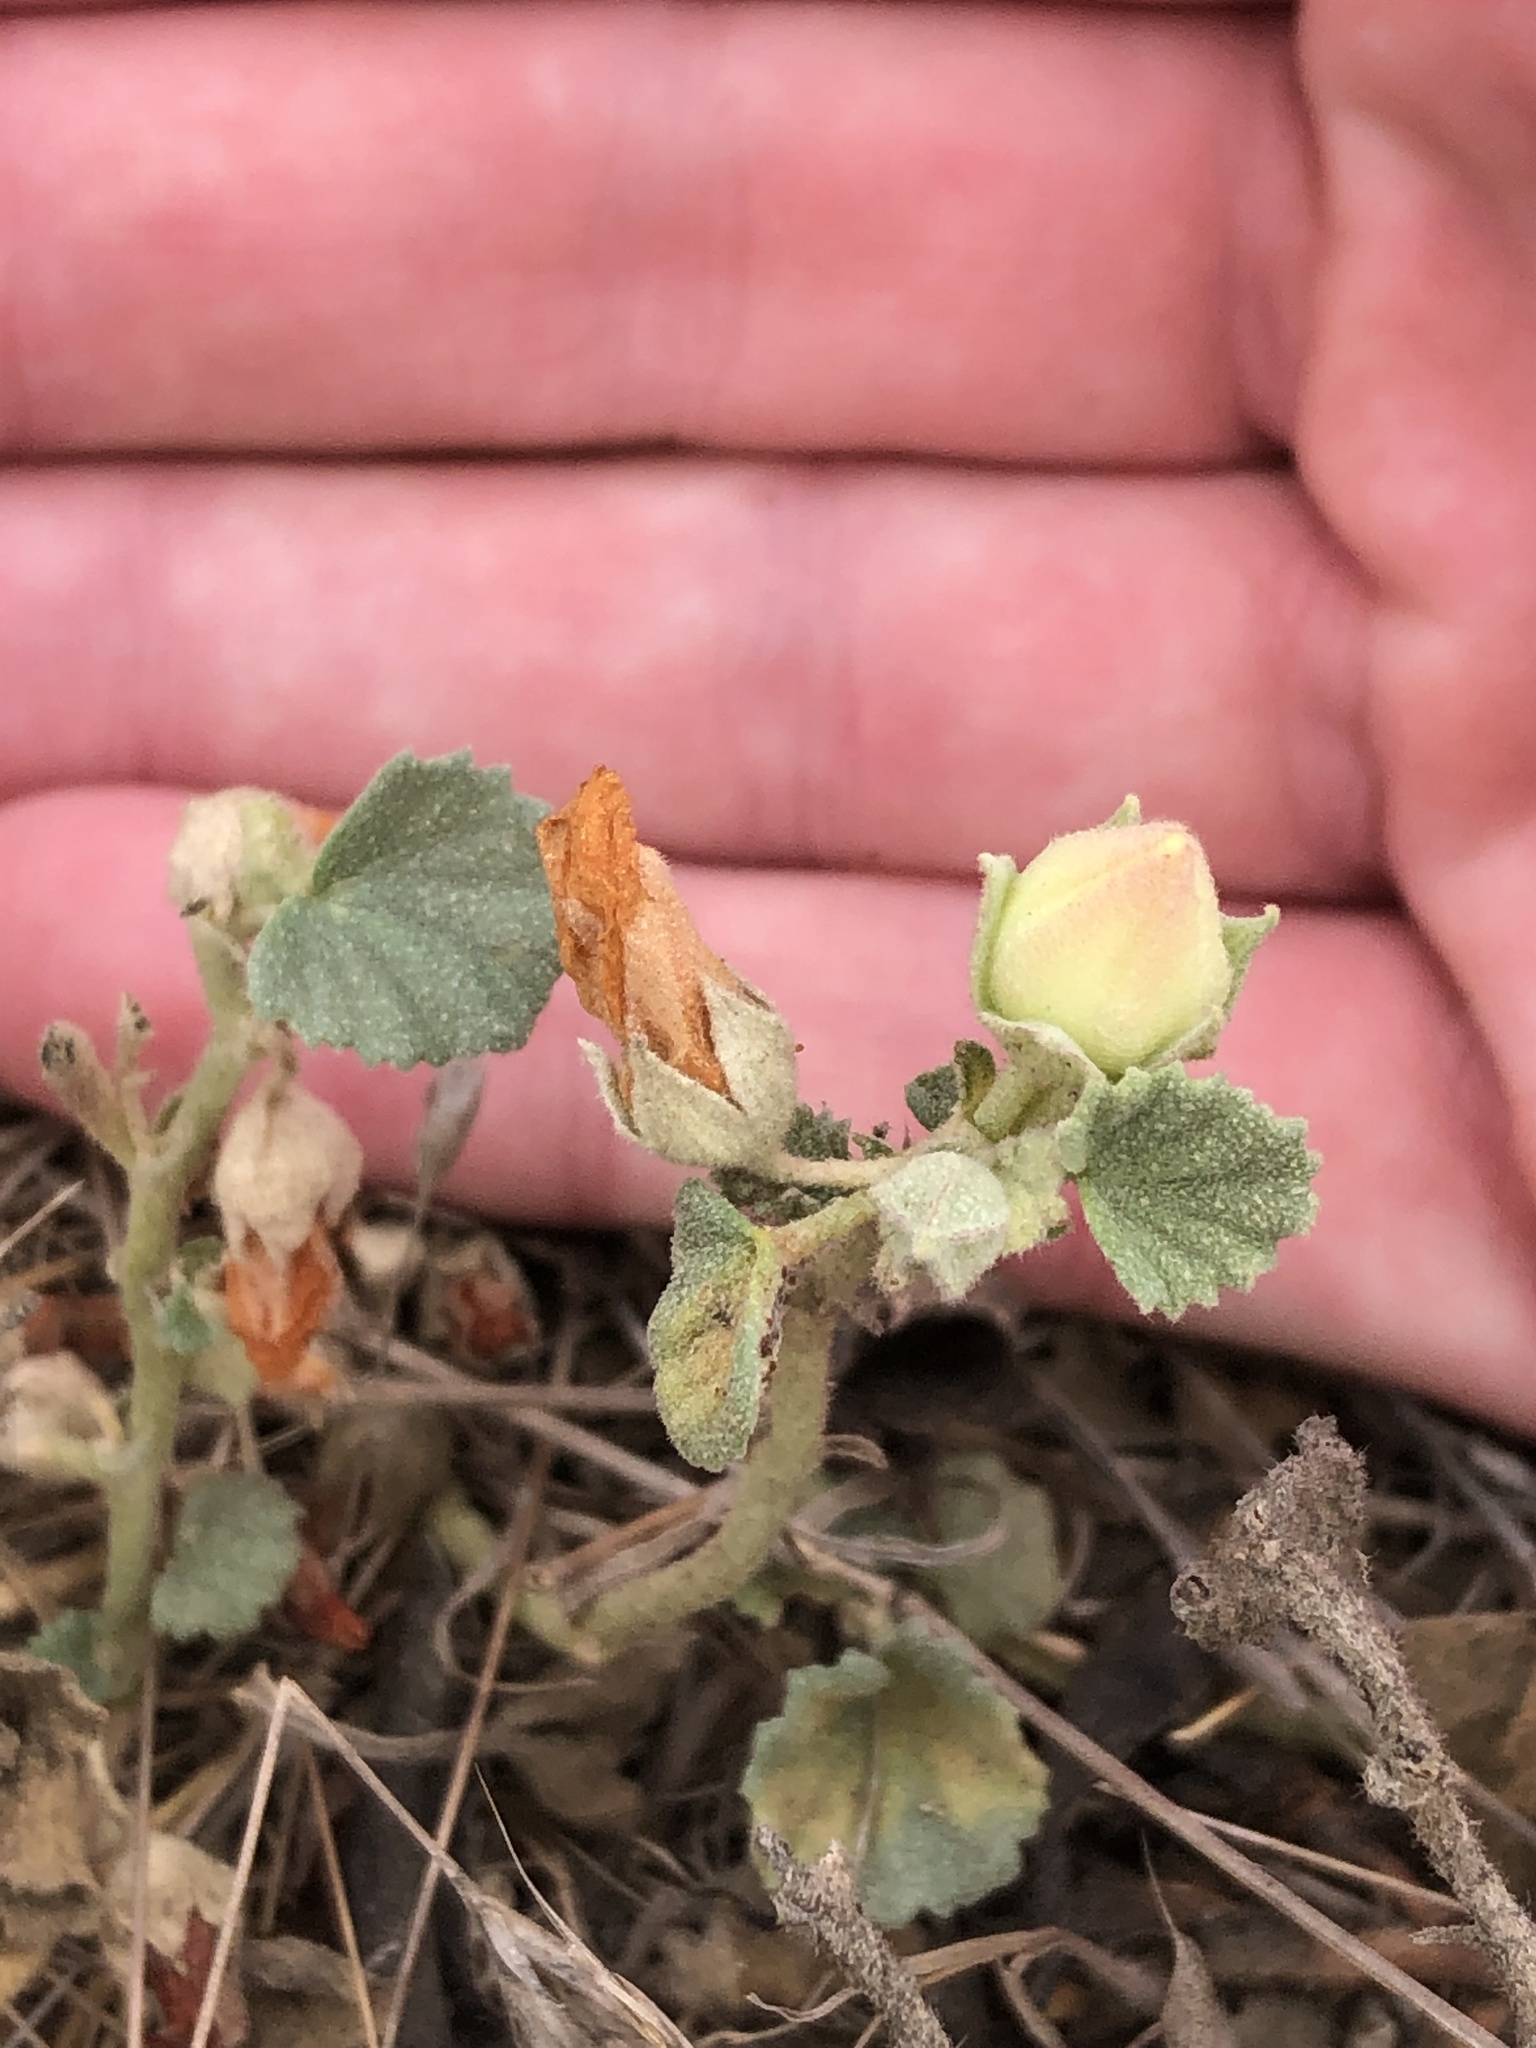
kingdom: Plantae
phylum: Tracheophyta
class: Magnoliopsida
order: Malvales
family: Malvaceae
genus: Malvella
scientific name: Malvella leprosa
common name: Alkali-mallow
